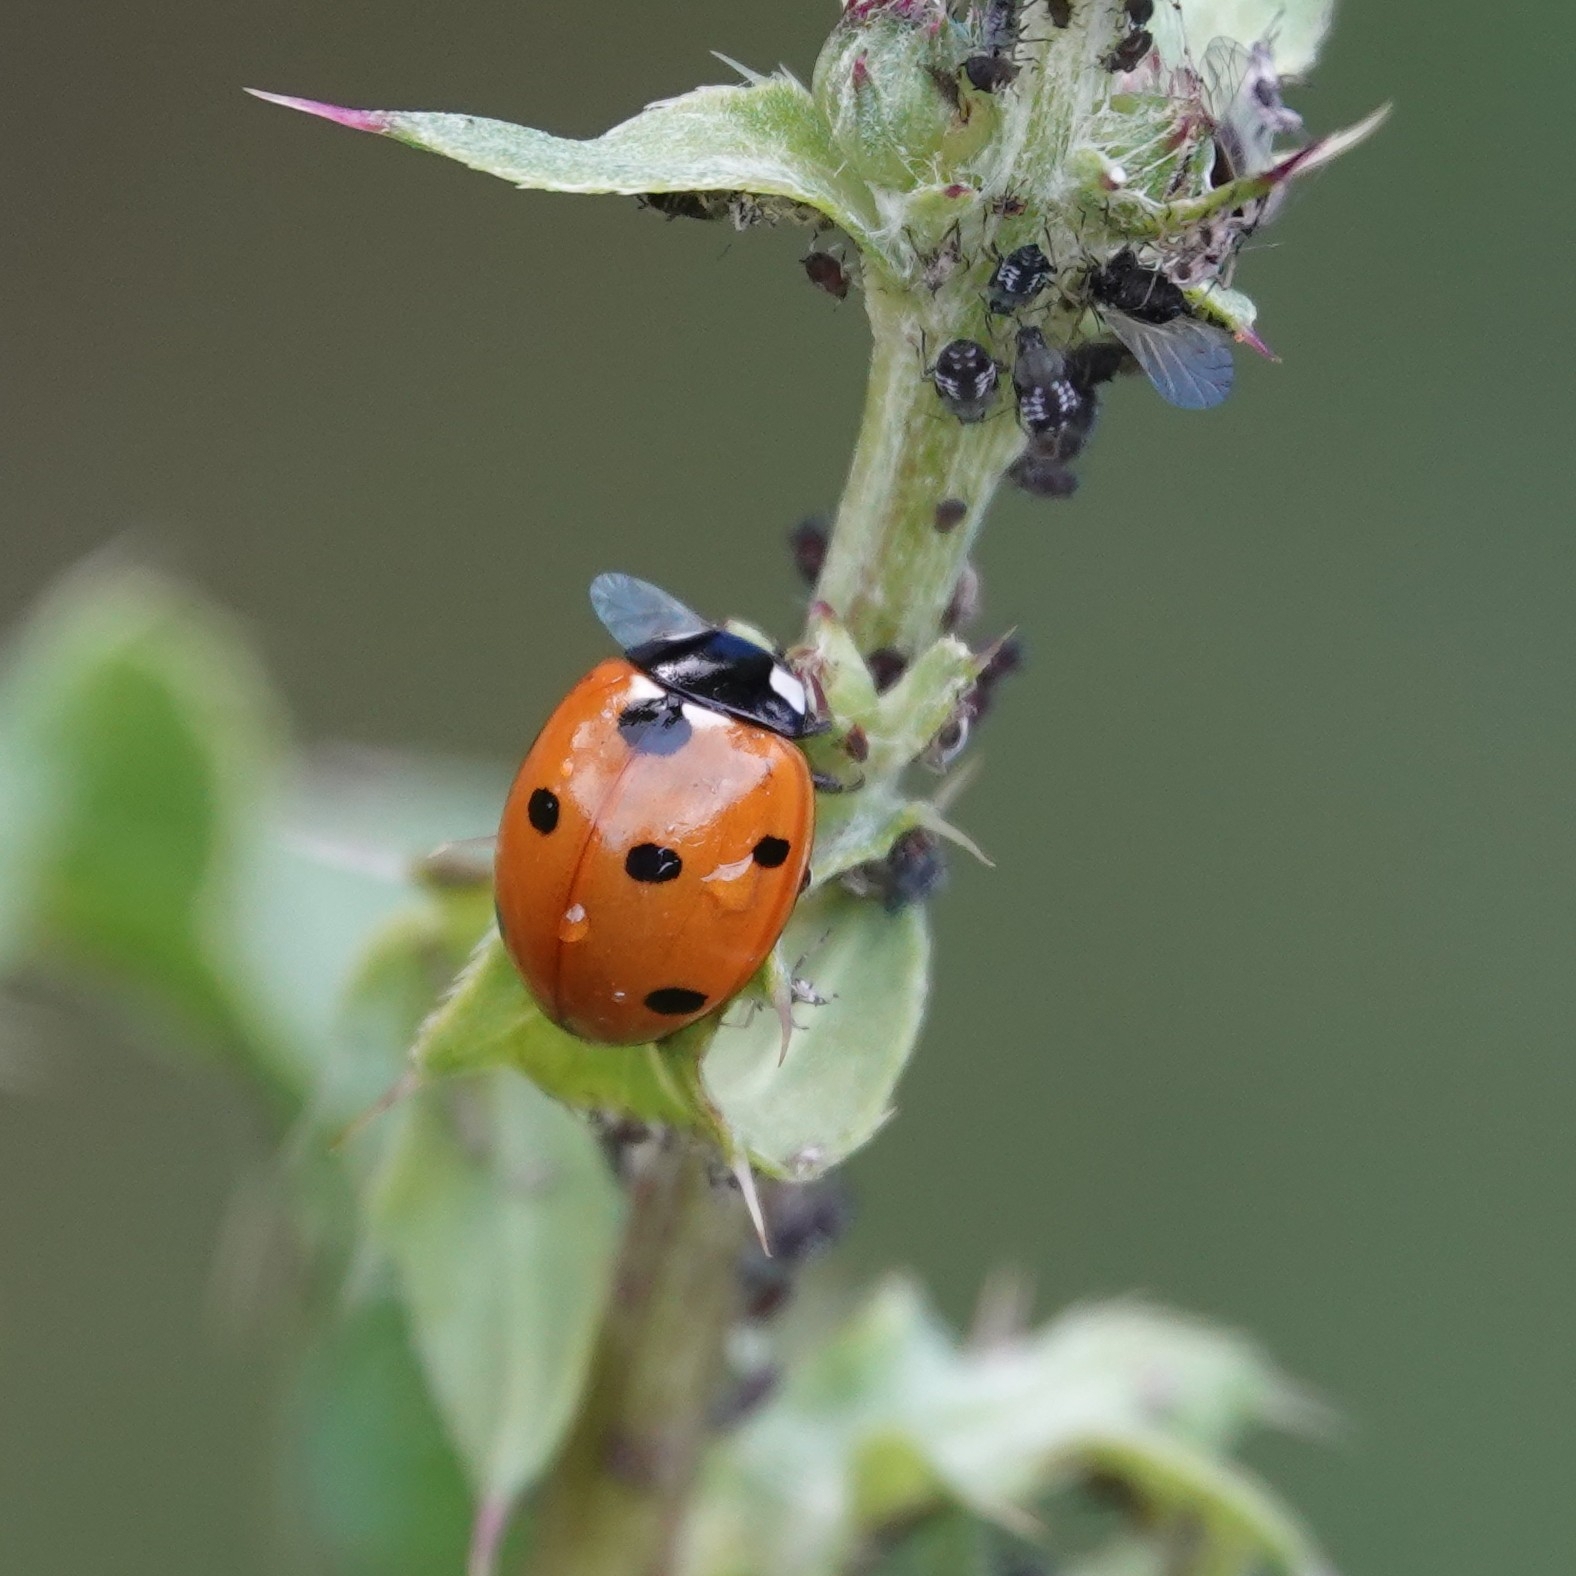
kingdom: Animalia
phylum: Arthropoda
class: Insecta
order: Coleoptera
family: Coccinellidae
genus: Coccinella
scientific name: Coccinella septempunctata
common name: Sevenspotted lady beetle
